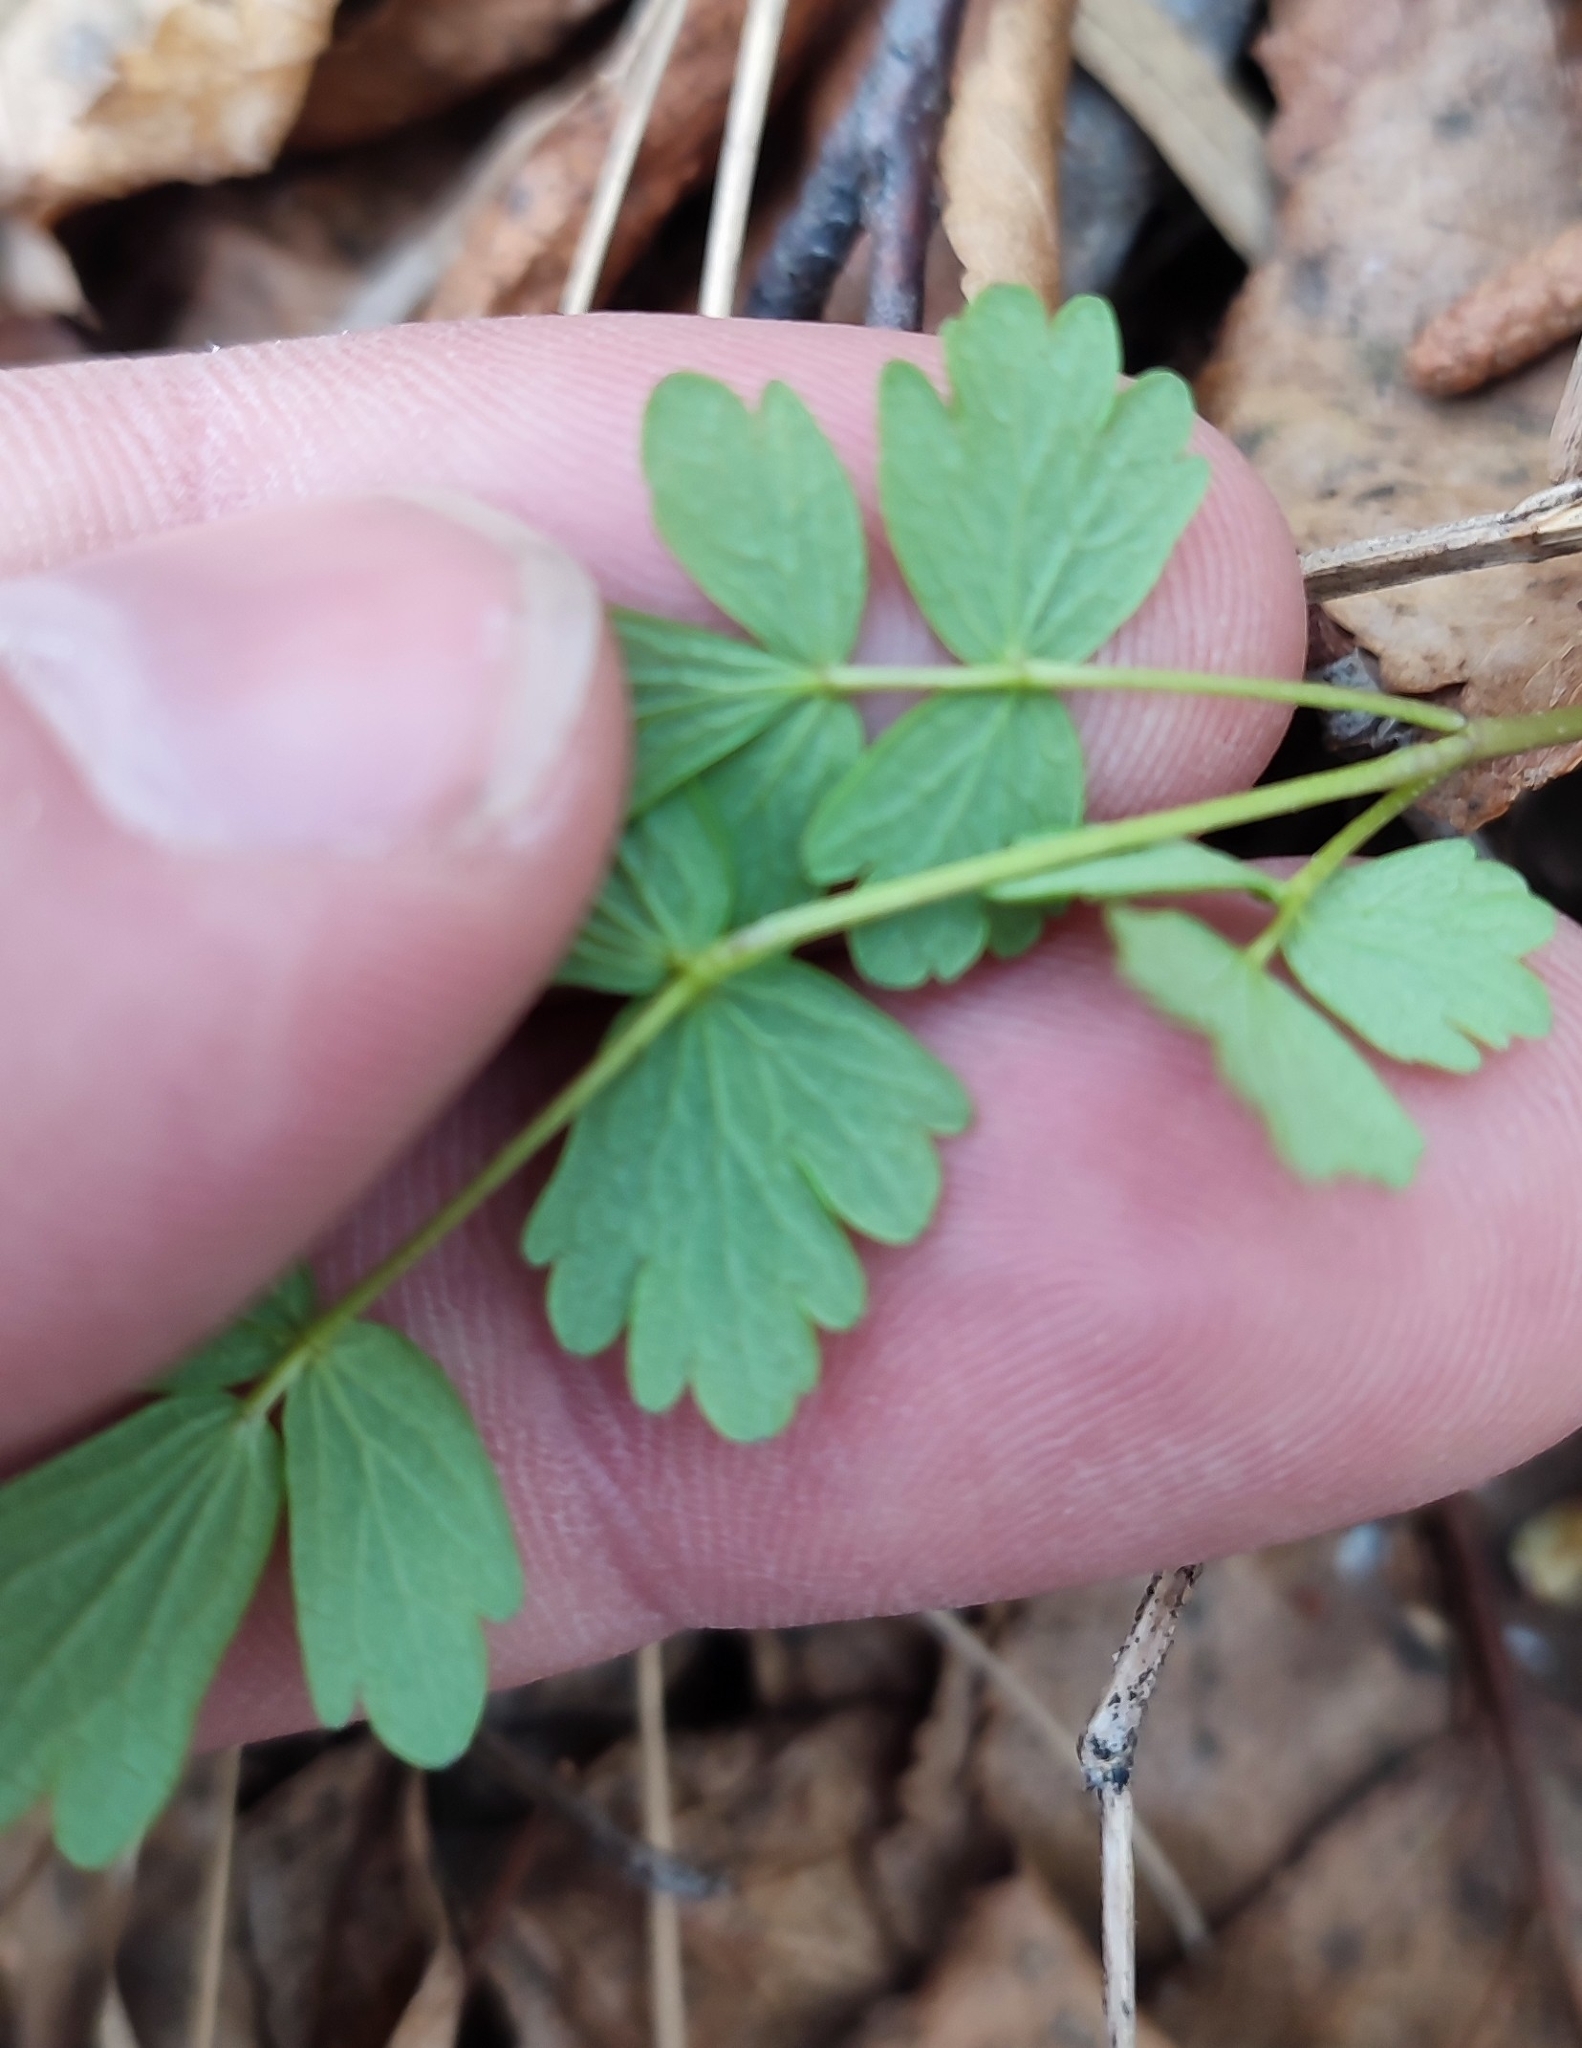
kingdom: Plantae
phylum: Tracheophyta
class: Magnoliopsida
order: Ranunculales
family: Ranunculaceae
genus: Thalictrum
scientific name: Thalictrum minus
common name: Lesser meadow-rue
